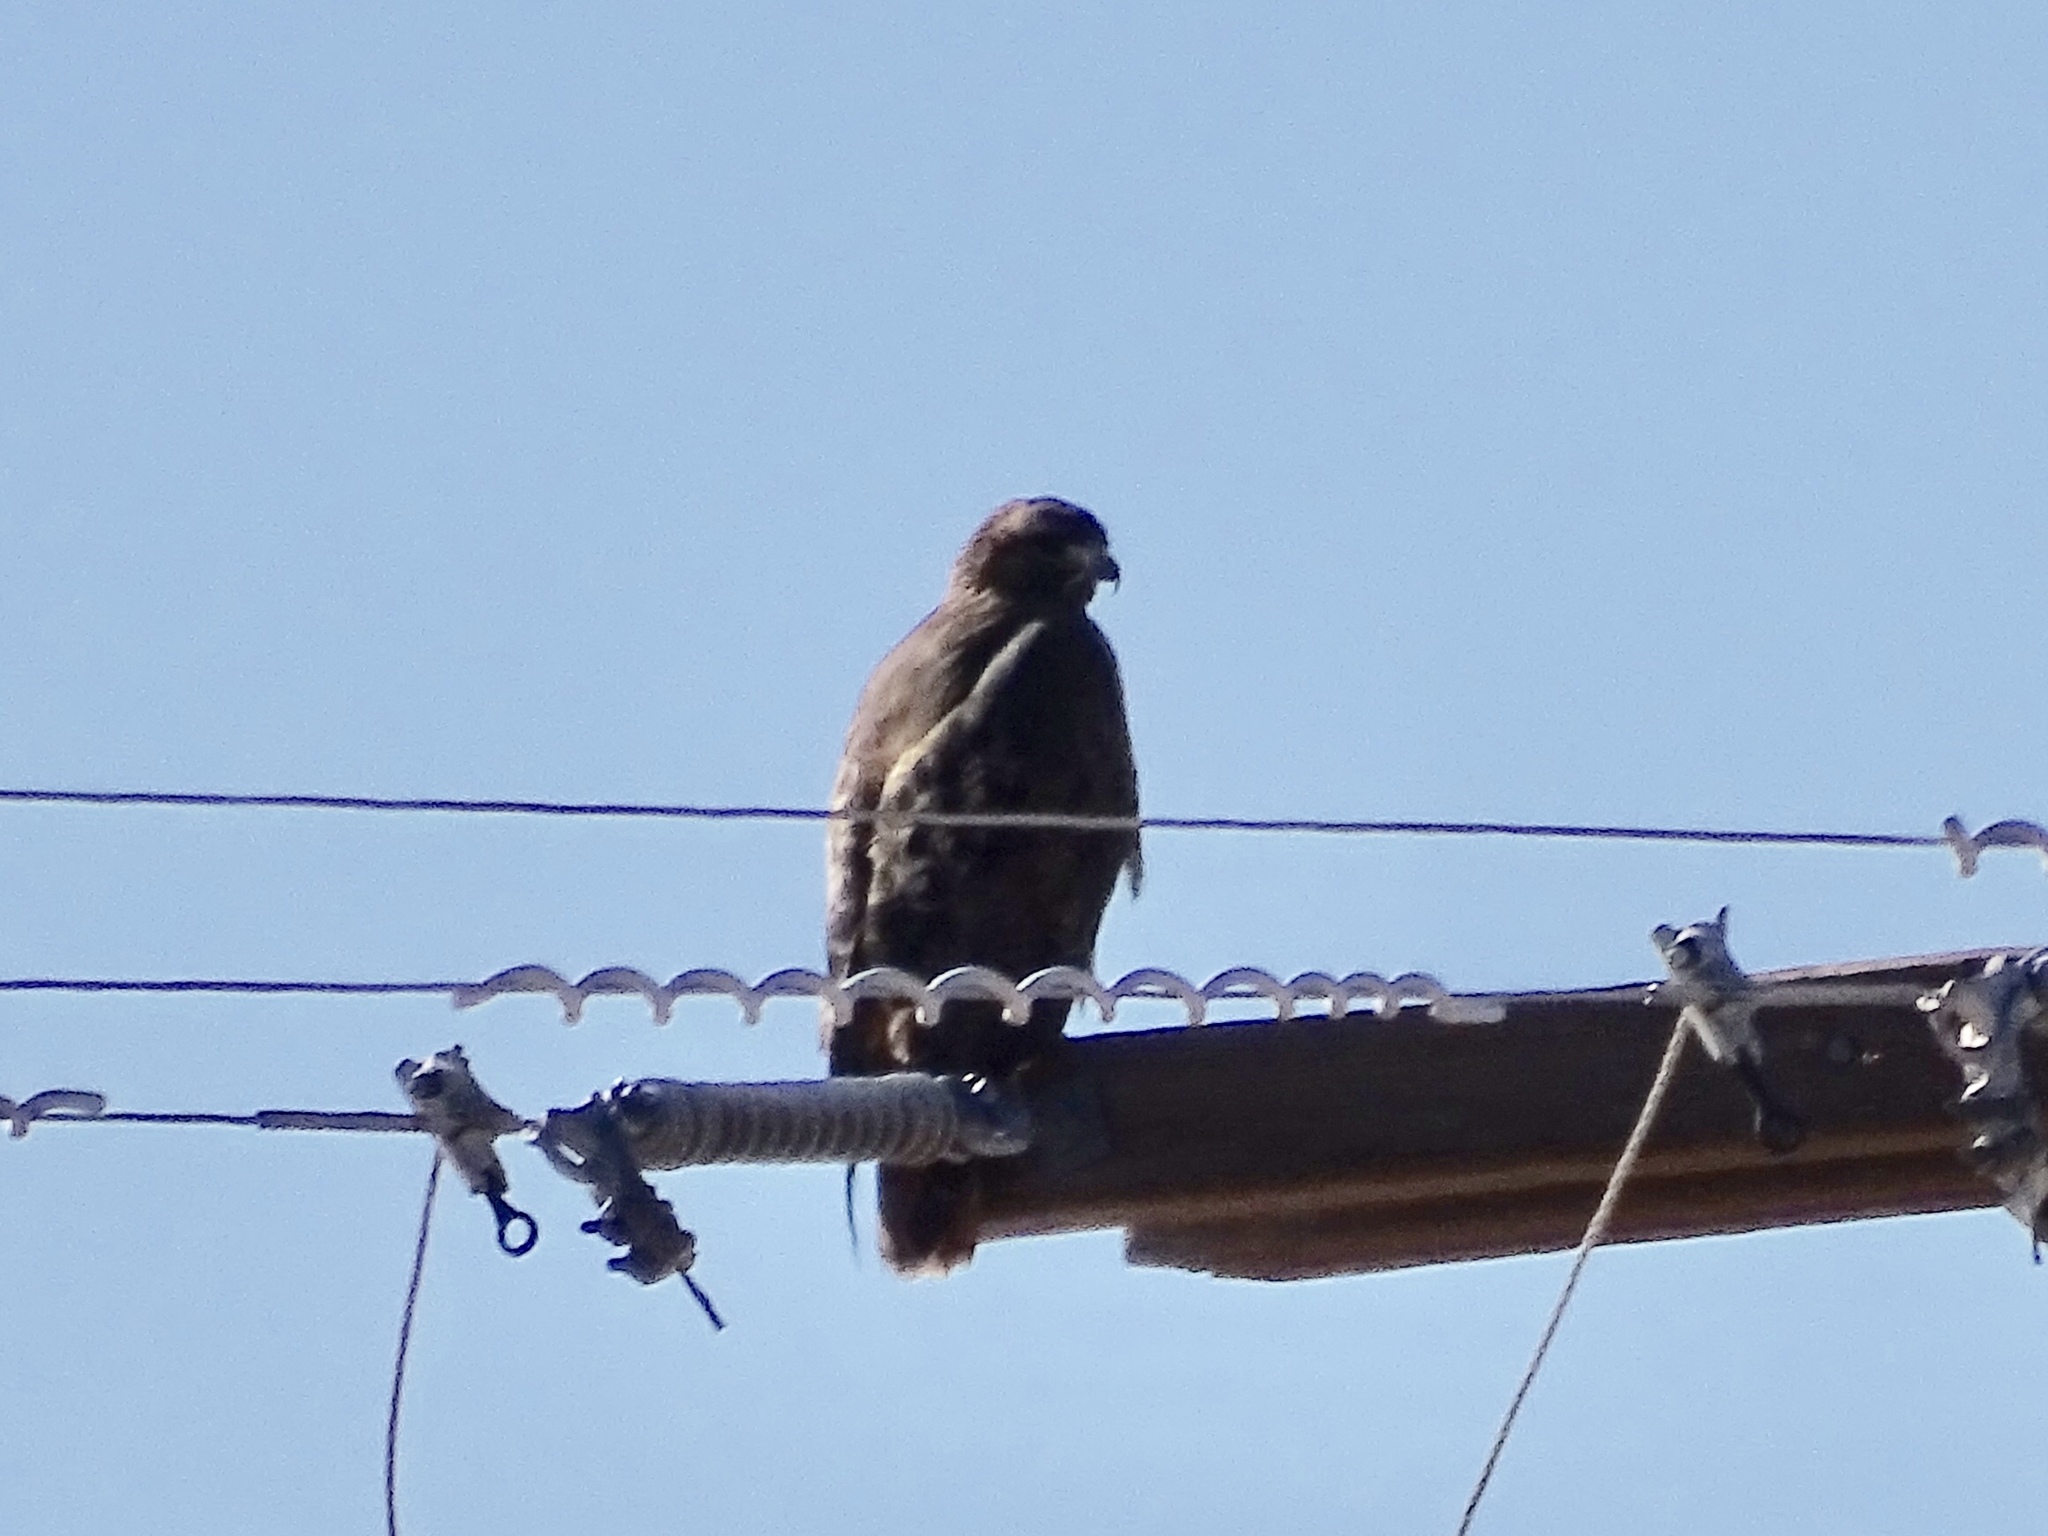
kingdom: Animalia
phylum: Chordata
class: Aves
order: Accipitriformes
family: Accipitridae
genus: Buteo
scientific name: Buteo jamaicensis
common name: Red-tailed hawk
